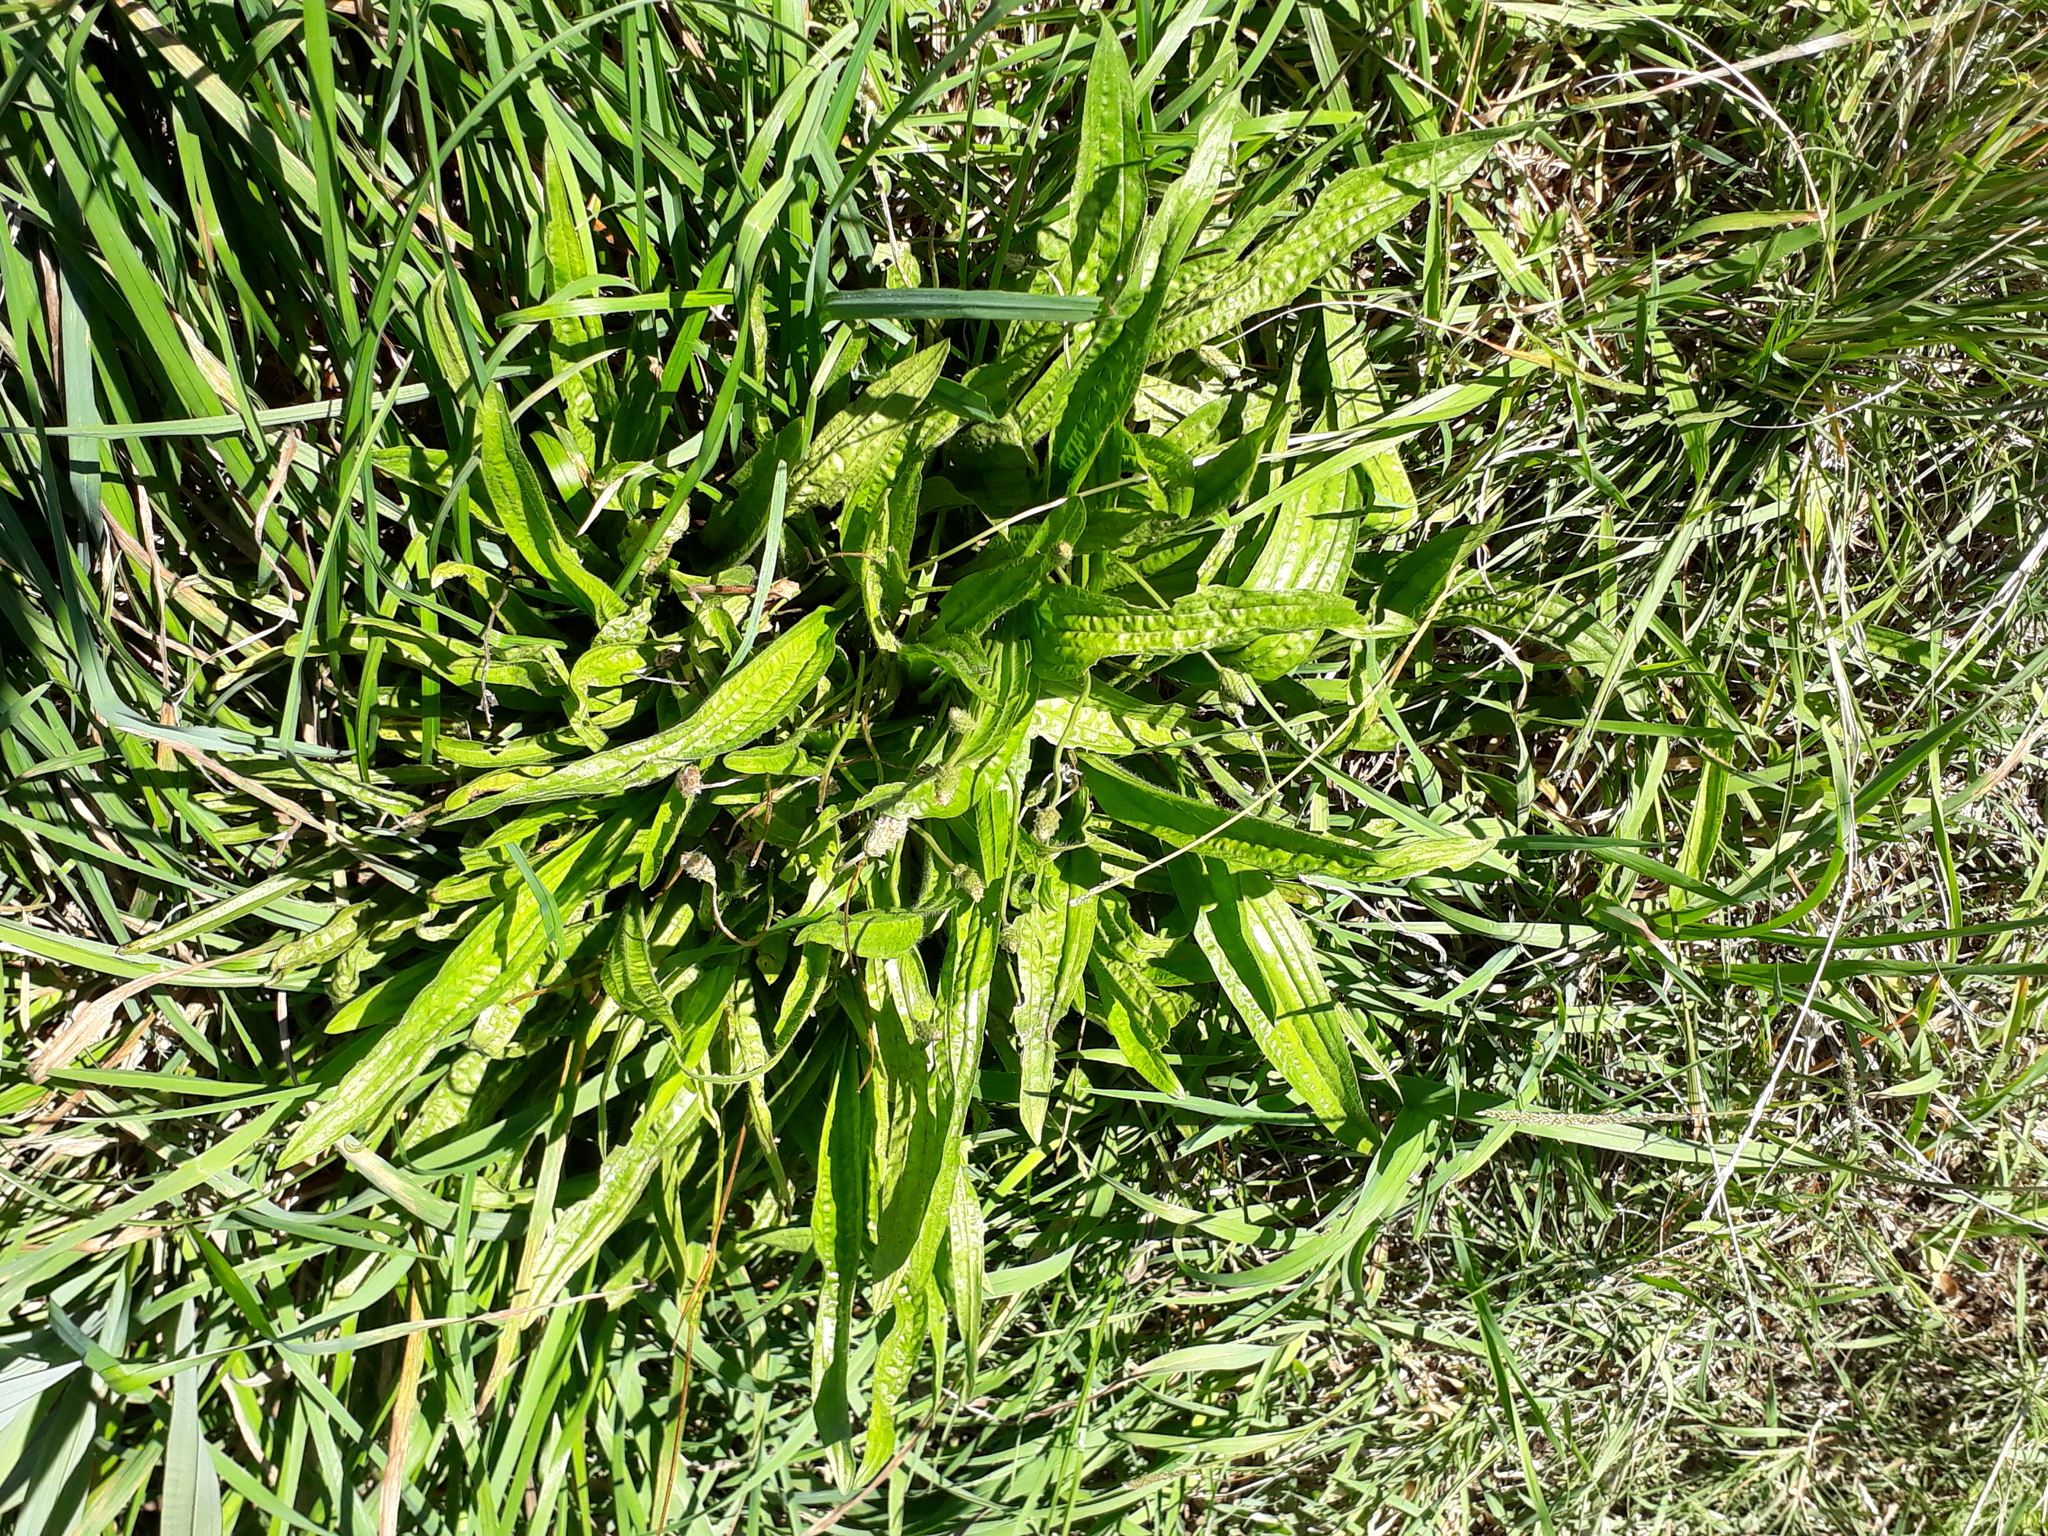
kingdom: Plantae
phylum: Tracheophyta
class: Magnoliopsida
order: Lamiales
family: Plantaginaceae
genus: Plantago
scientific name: Plantago lanceolata
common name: Ribwort plantain
